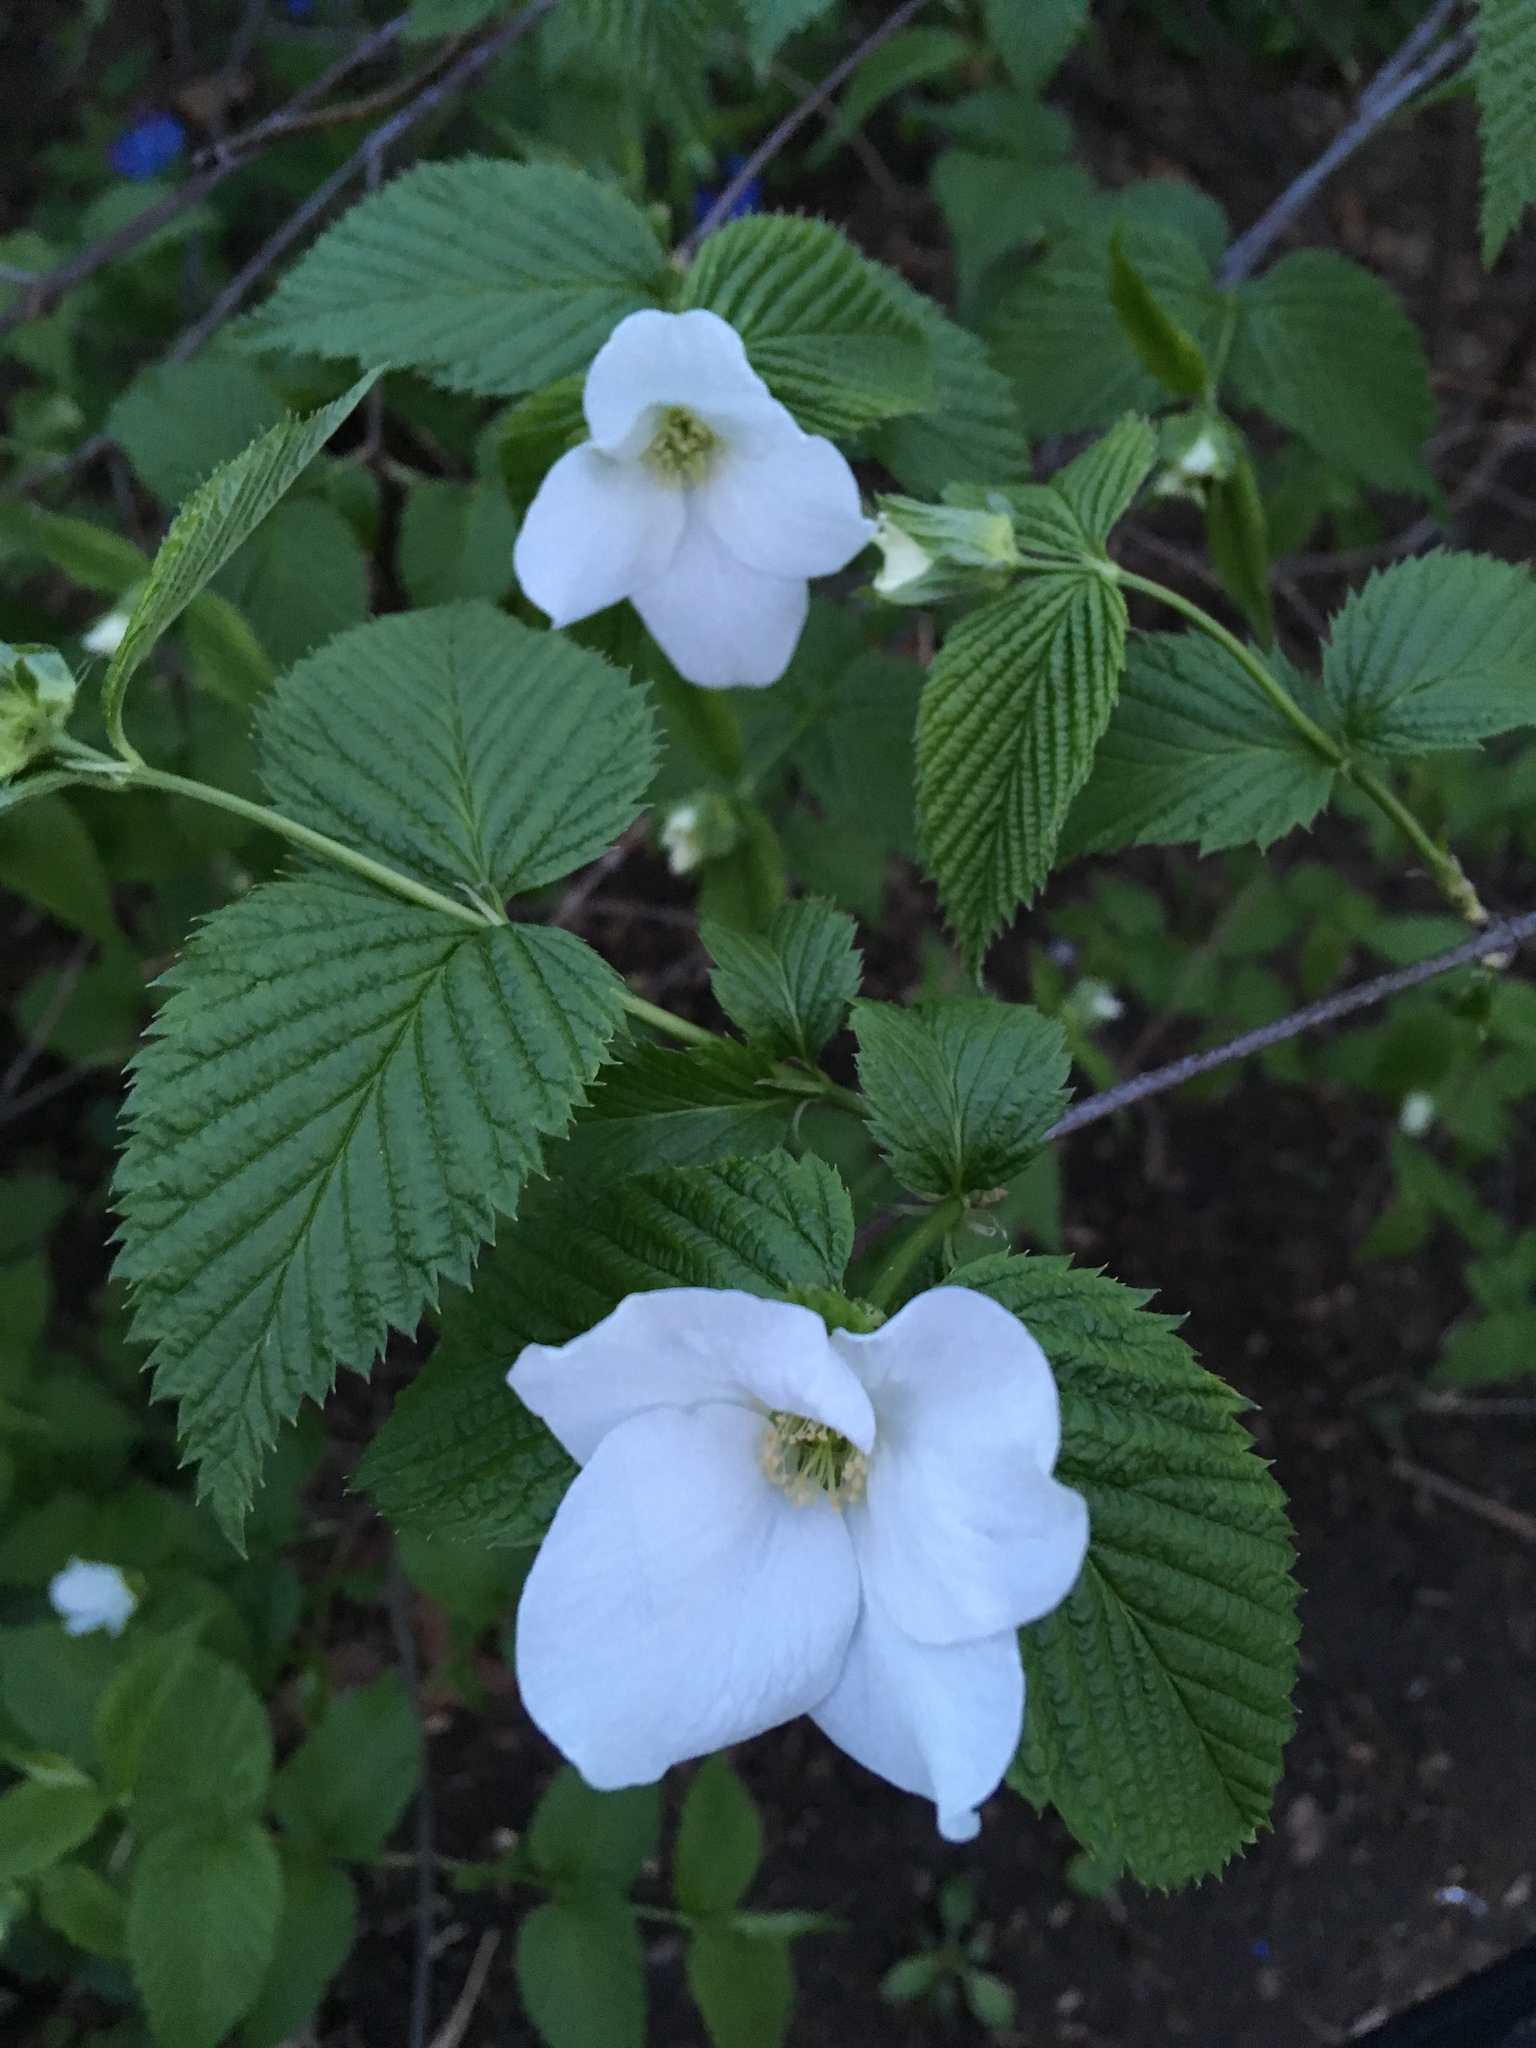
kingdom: Plantae
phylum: Tracheophyta
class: Magnoliopsida
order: Rosales
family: Rosaceae
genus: Rhodotypos
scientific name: Rhodotypos scandens
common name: Jetbead
